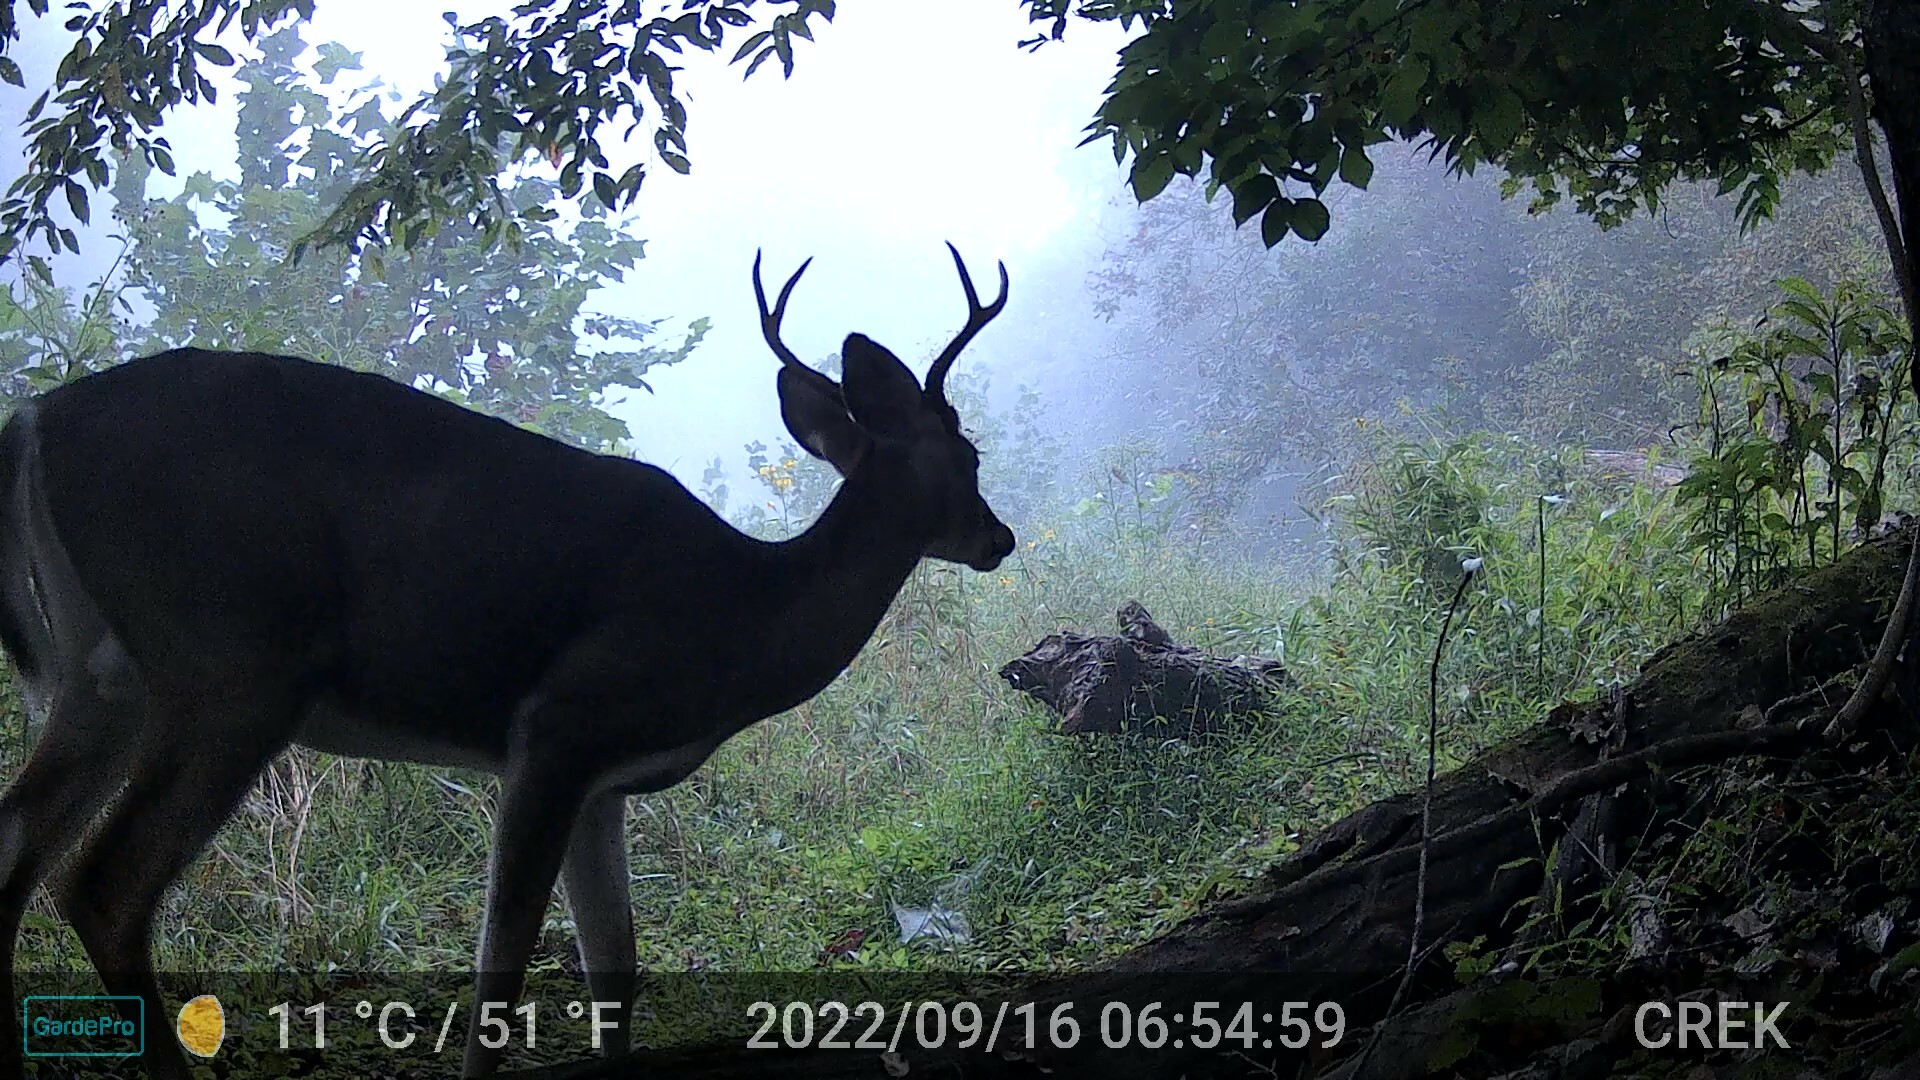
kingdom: Animalia
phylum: Chordata
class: Mammalia
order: Artiodactyla
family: Cervidae
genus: Odocoileus
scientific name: Odocoileus virginianus
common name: White-tailed deer
